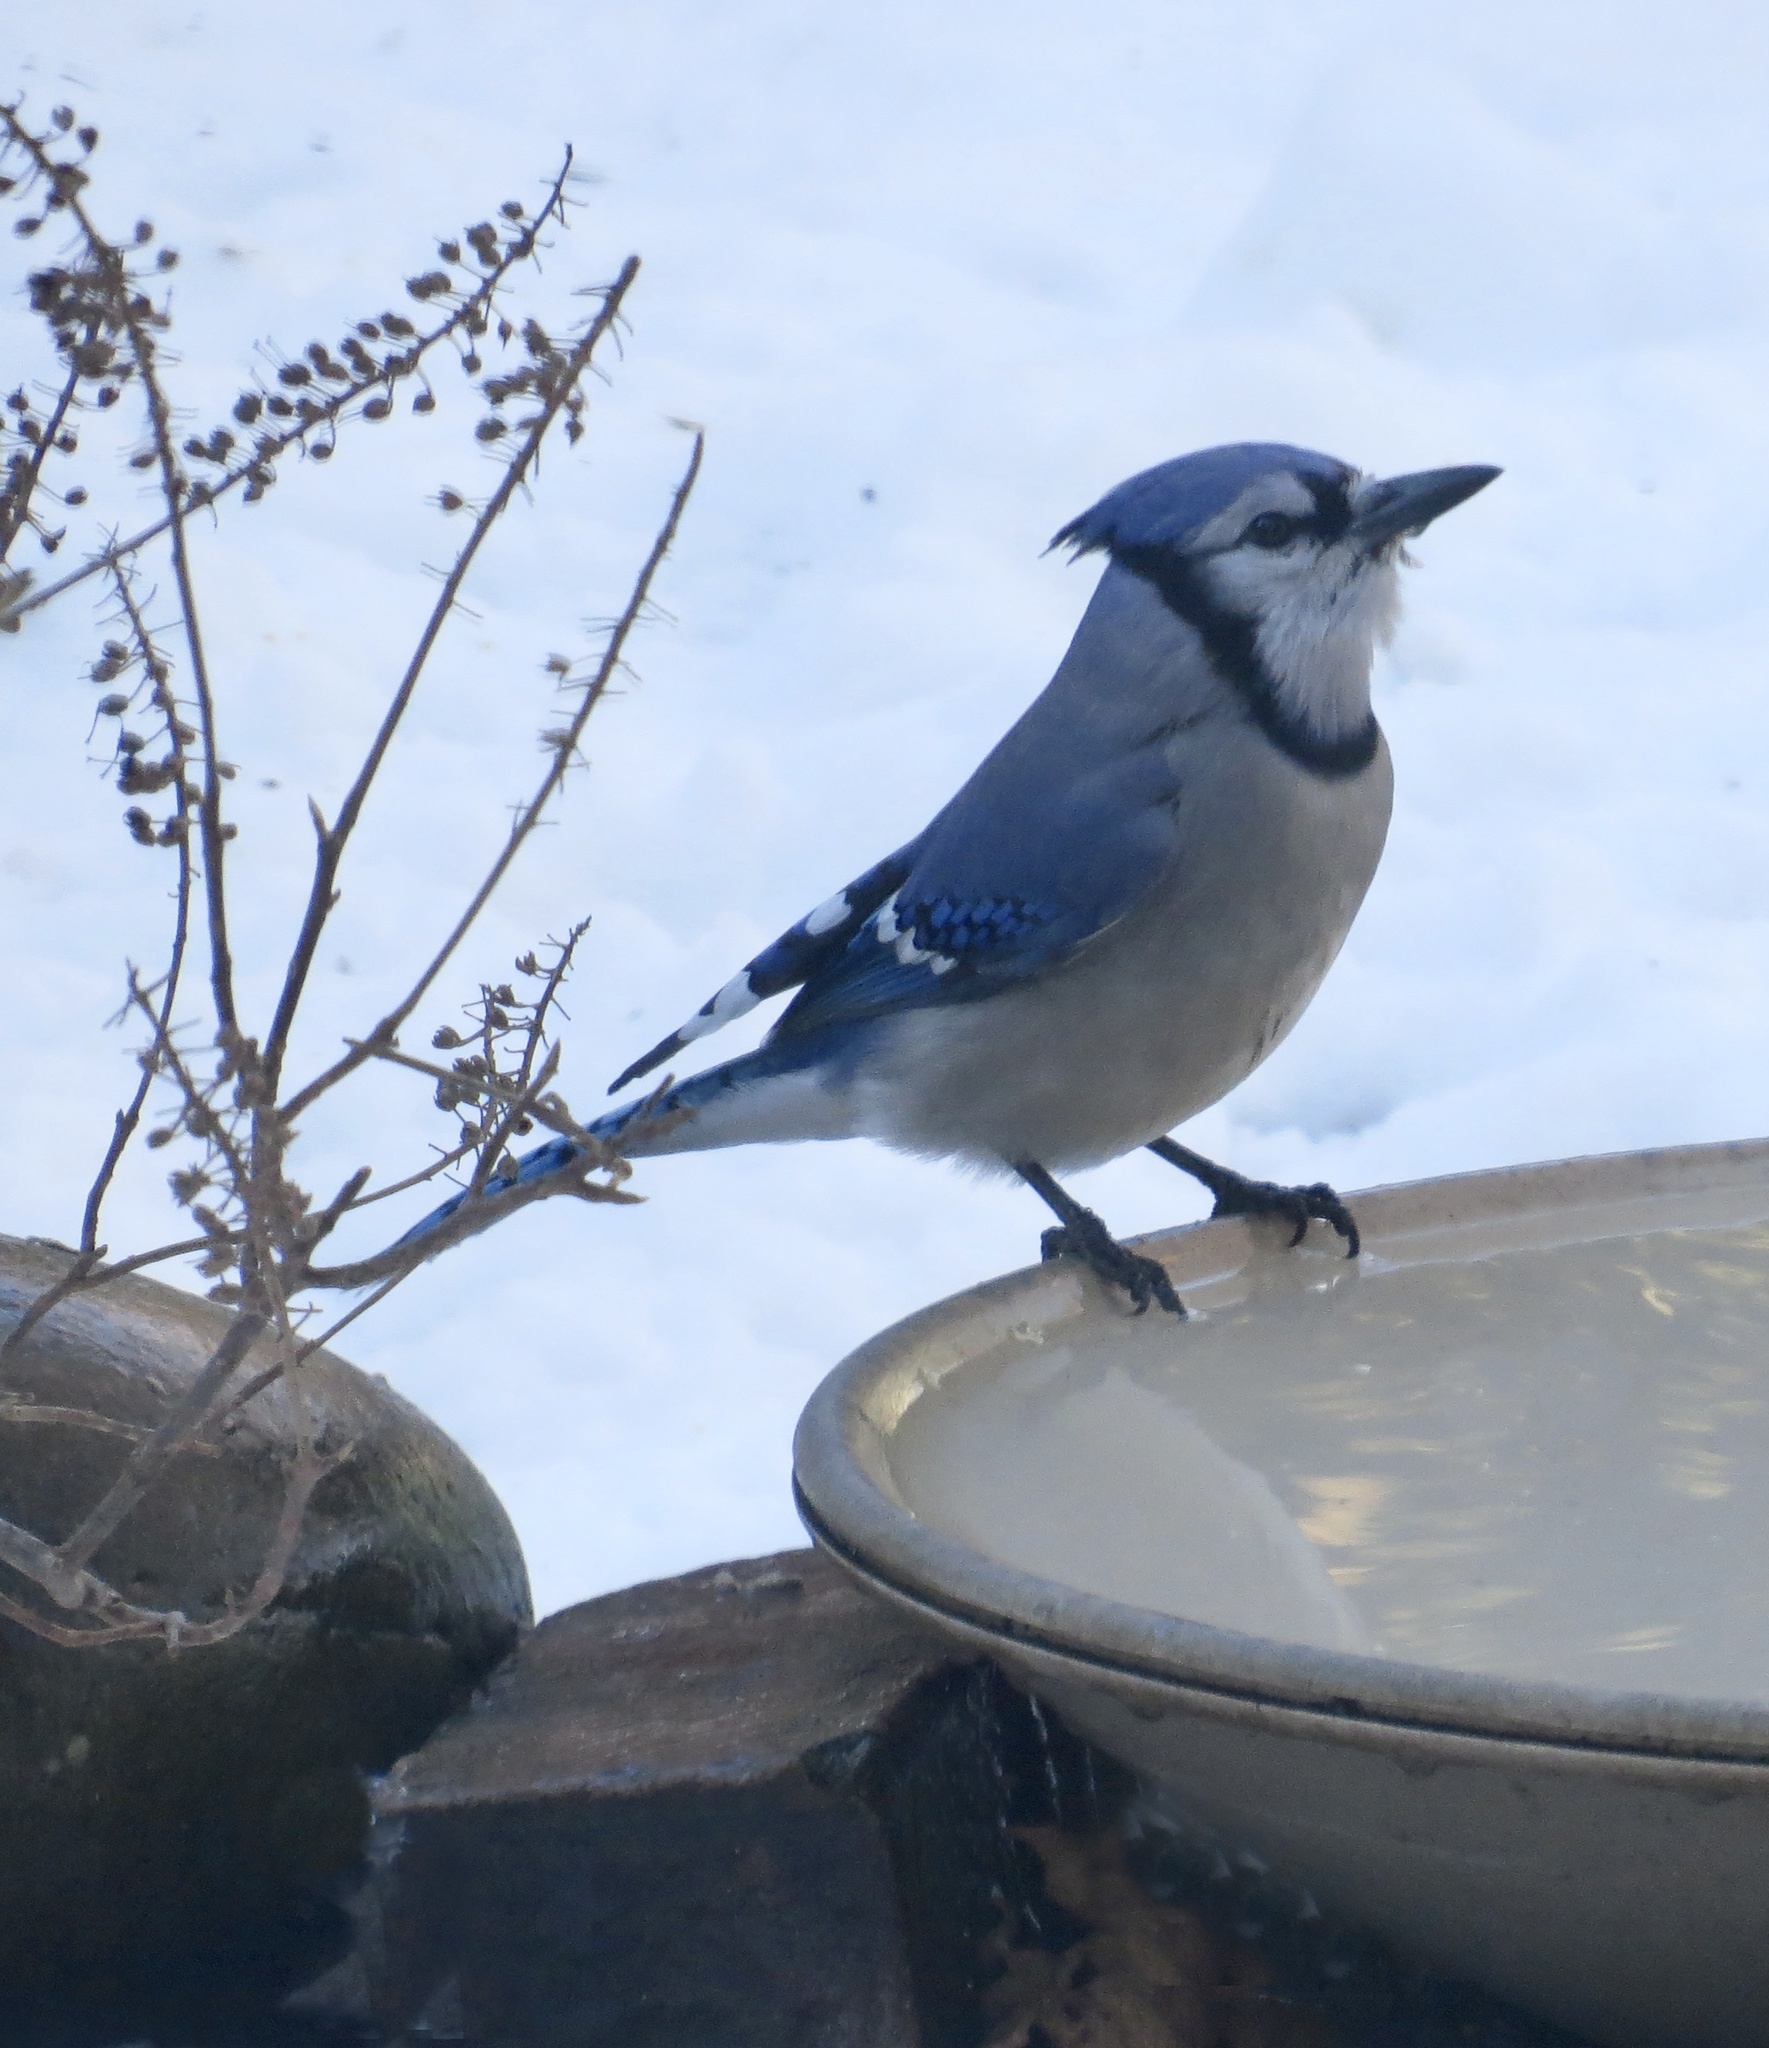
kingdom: Animalia
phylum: Chordata
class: Aves
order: Passeriformes
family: Corvidae
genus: Cyanocitta
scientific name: Cyanocitta cristata
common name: Blue jay
